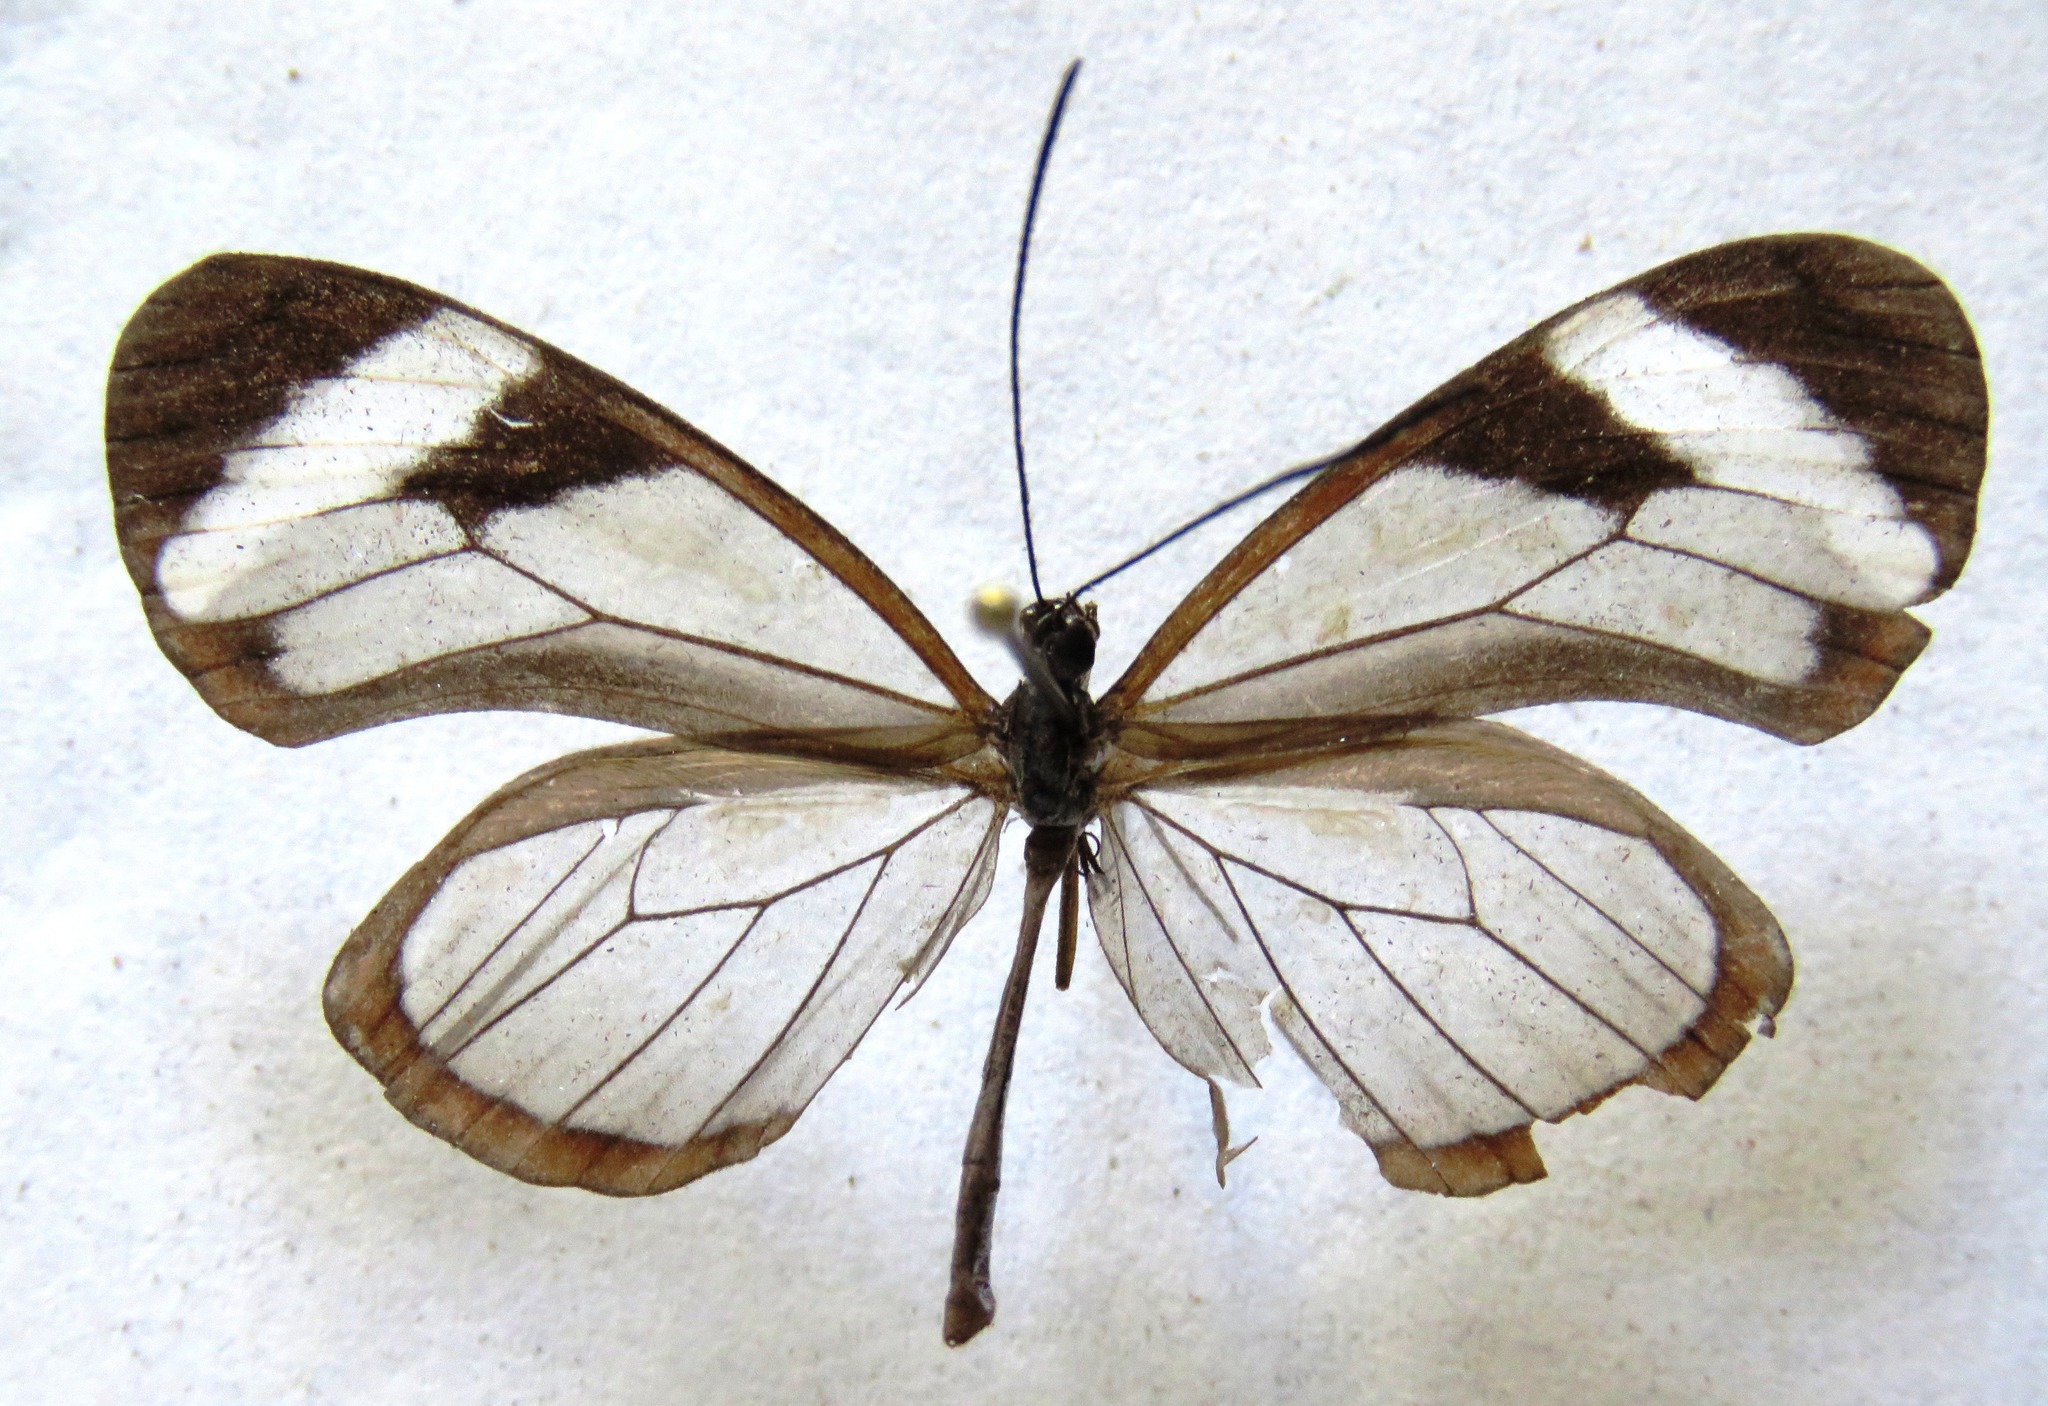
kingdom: Animalia
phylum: Arthropoda
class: Insecta
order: Lepidoptera
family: Nymphalidae
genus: Oleria
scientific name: Oleria paula
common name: Paula's clearwing
